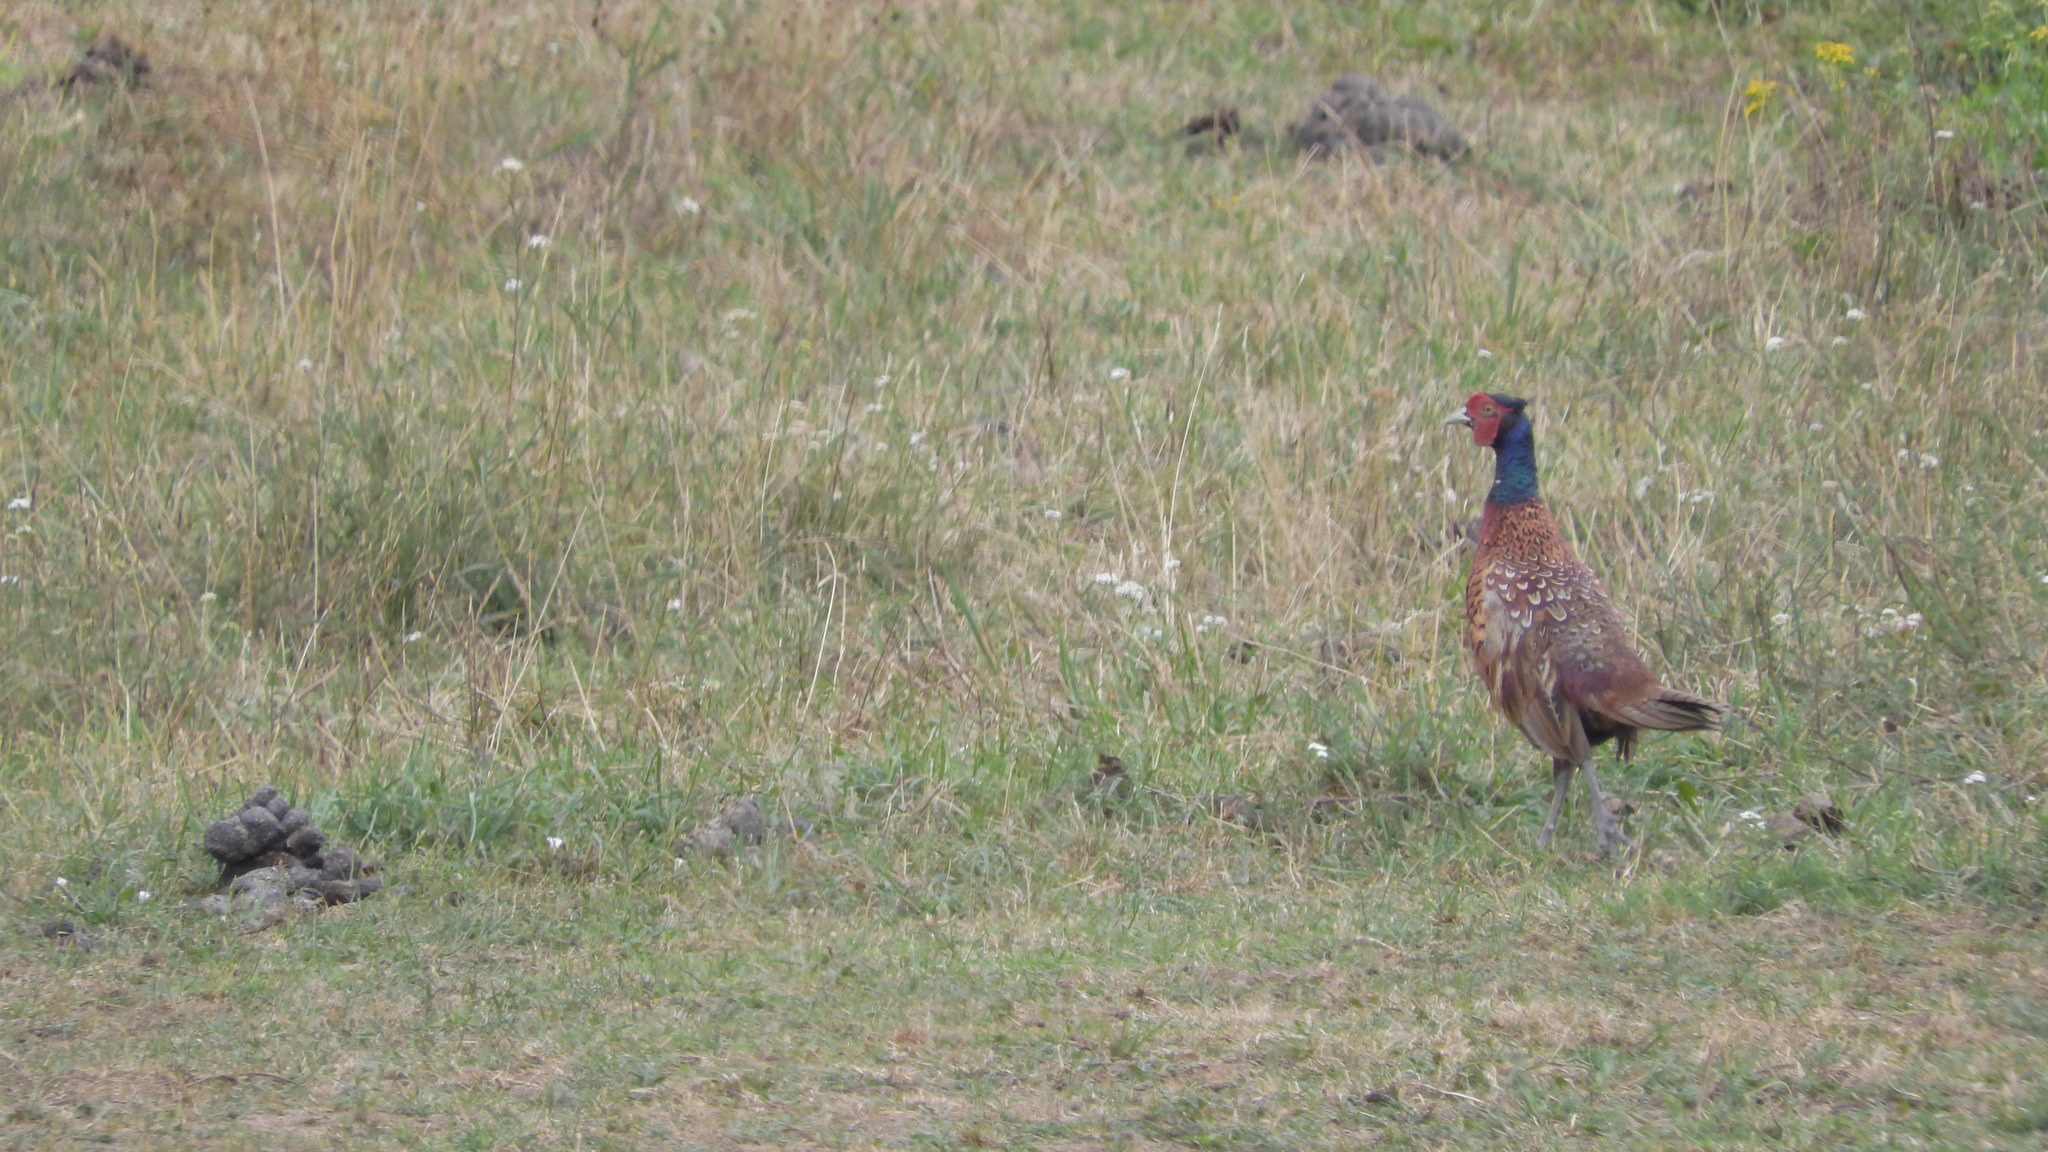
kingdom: Animalia
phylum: Chordata
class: Aves
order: Galliformes
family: Phasianidae
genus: Phasianus
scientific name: Phasianus colchicus
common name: Common pheasant
